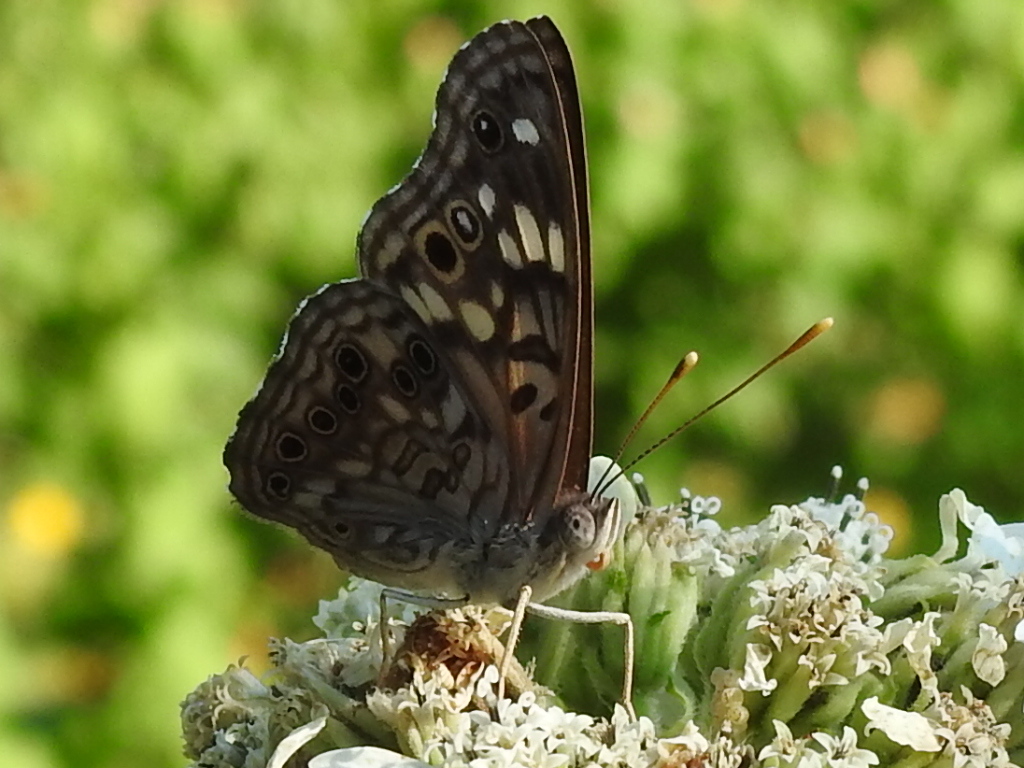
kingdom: Animalia
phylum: Arthropoda
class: Insecta
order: Lepidoptera
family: Nymphalidae
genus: Asterocampa
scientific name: Asterocampa celtis
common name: Hackberry emperor
